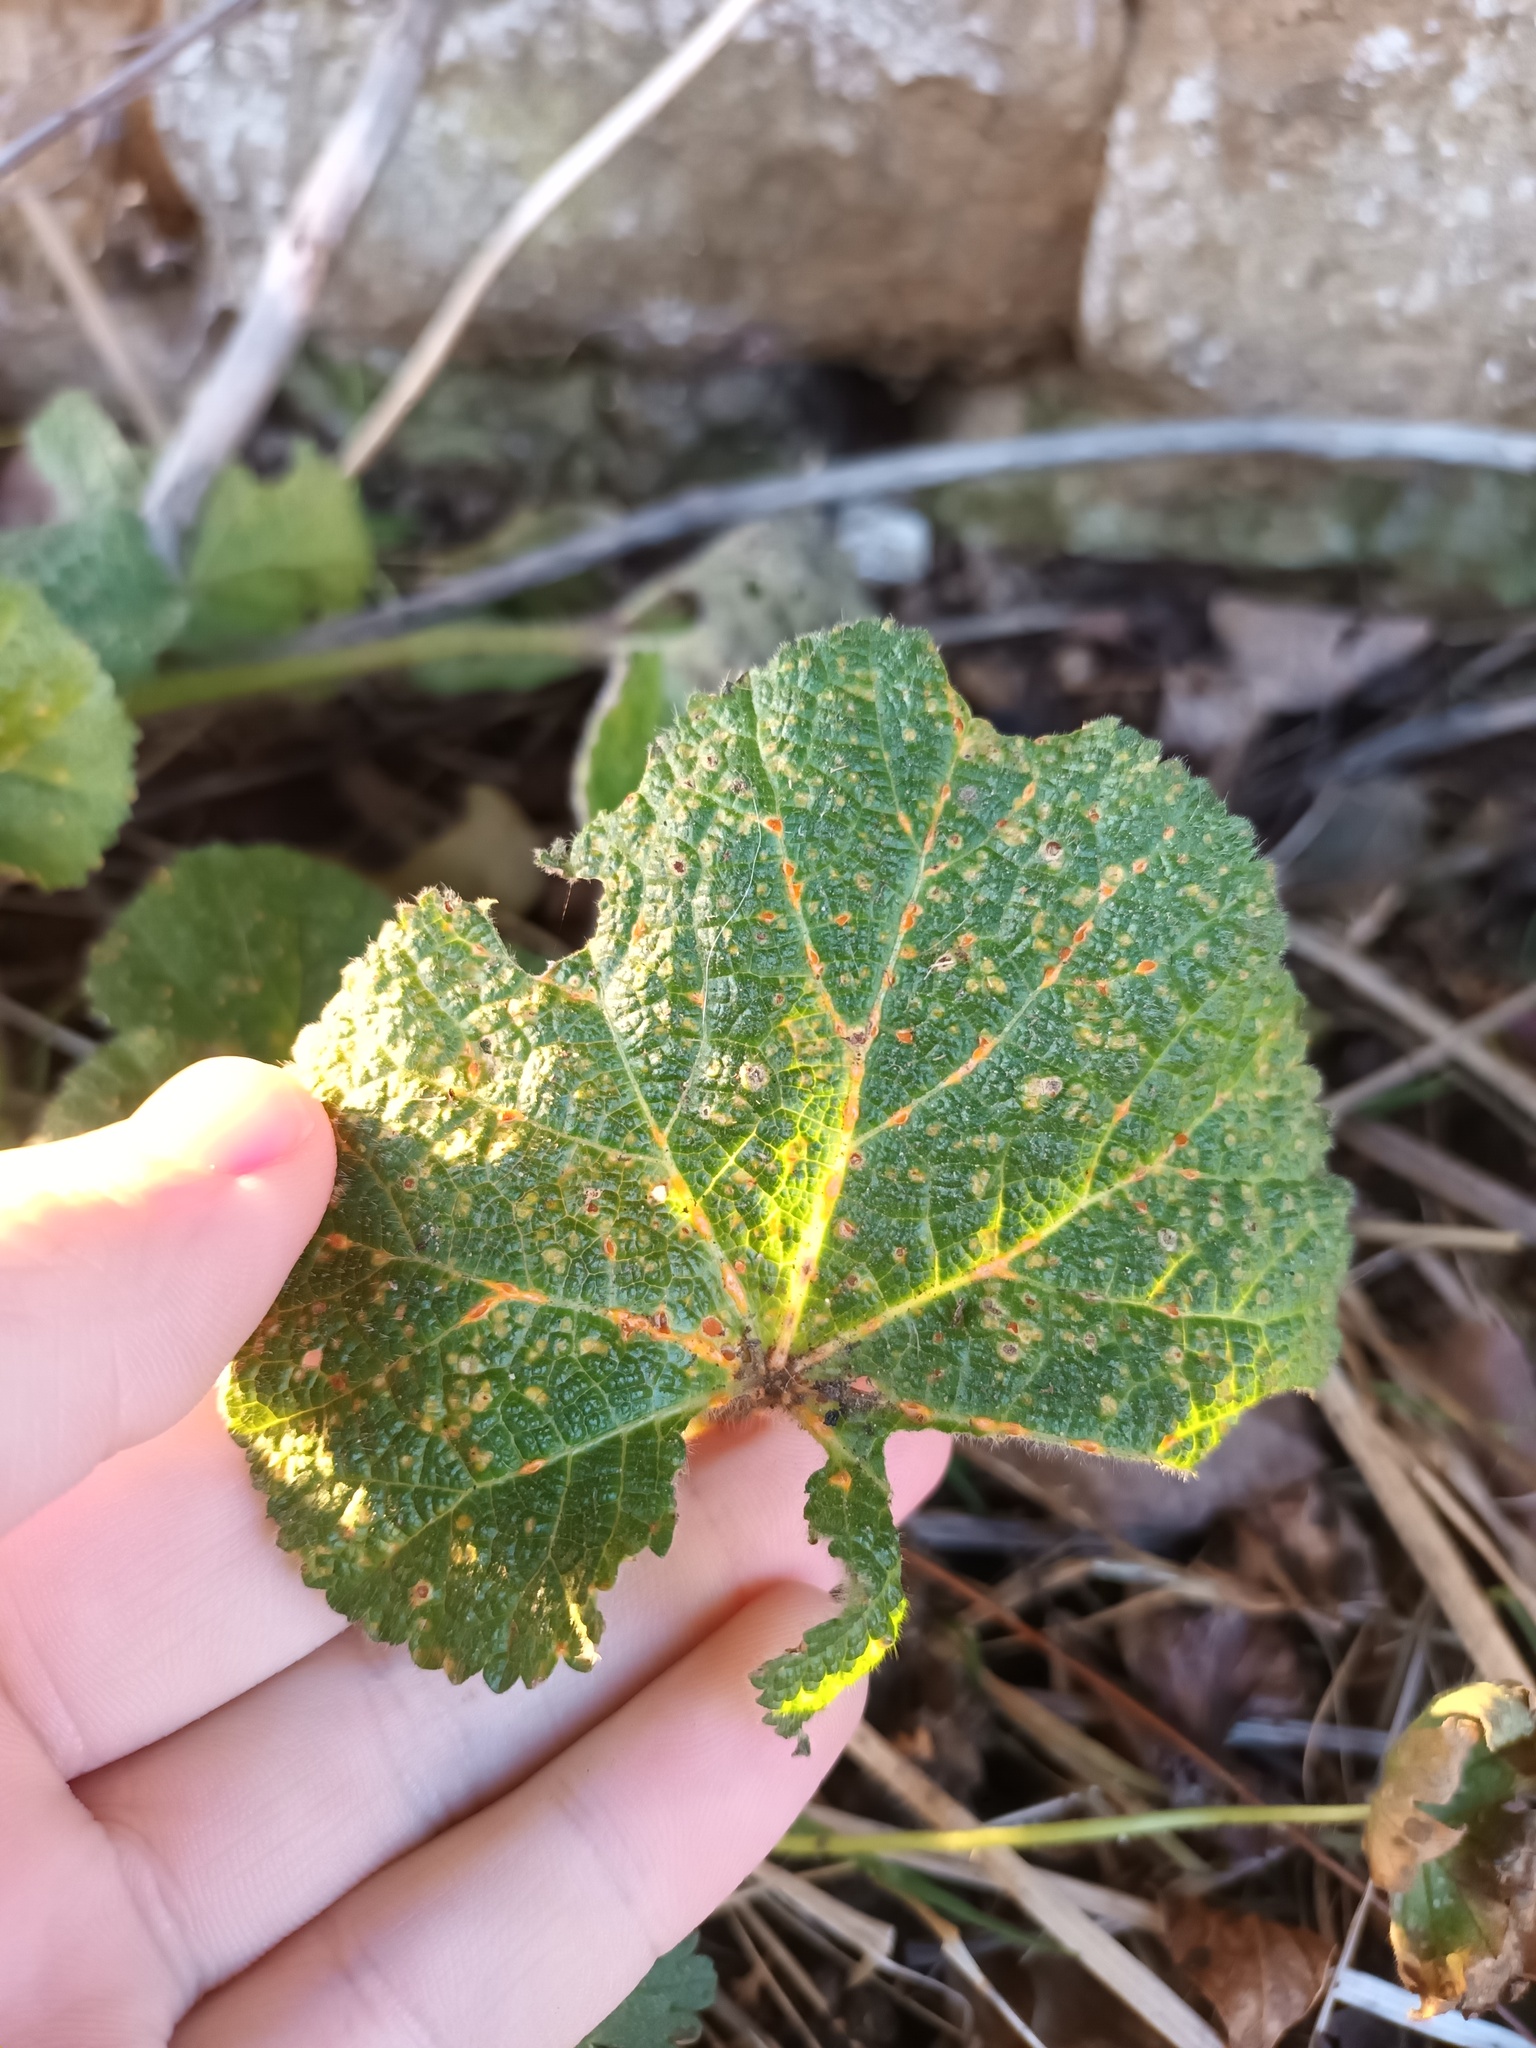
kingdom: Fungi
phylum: Basidiomycota
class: Pucciniomycetes
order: Pucciniales
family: Pucciniaceae
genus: Puccinia
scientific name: Puccinia malvacearum
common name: Hollyhock rust
